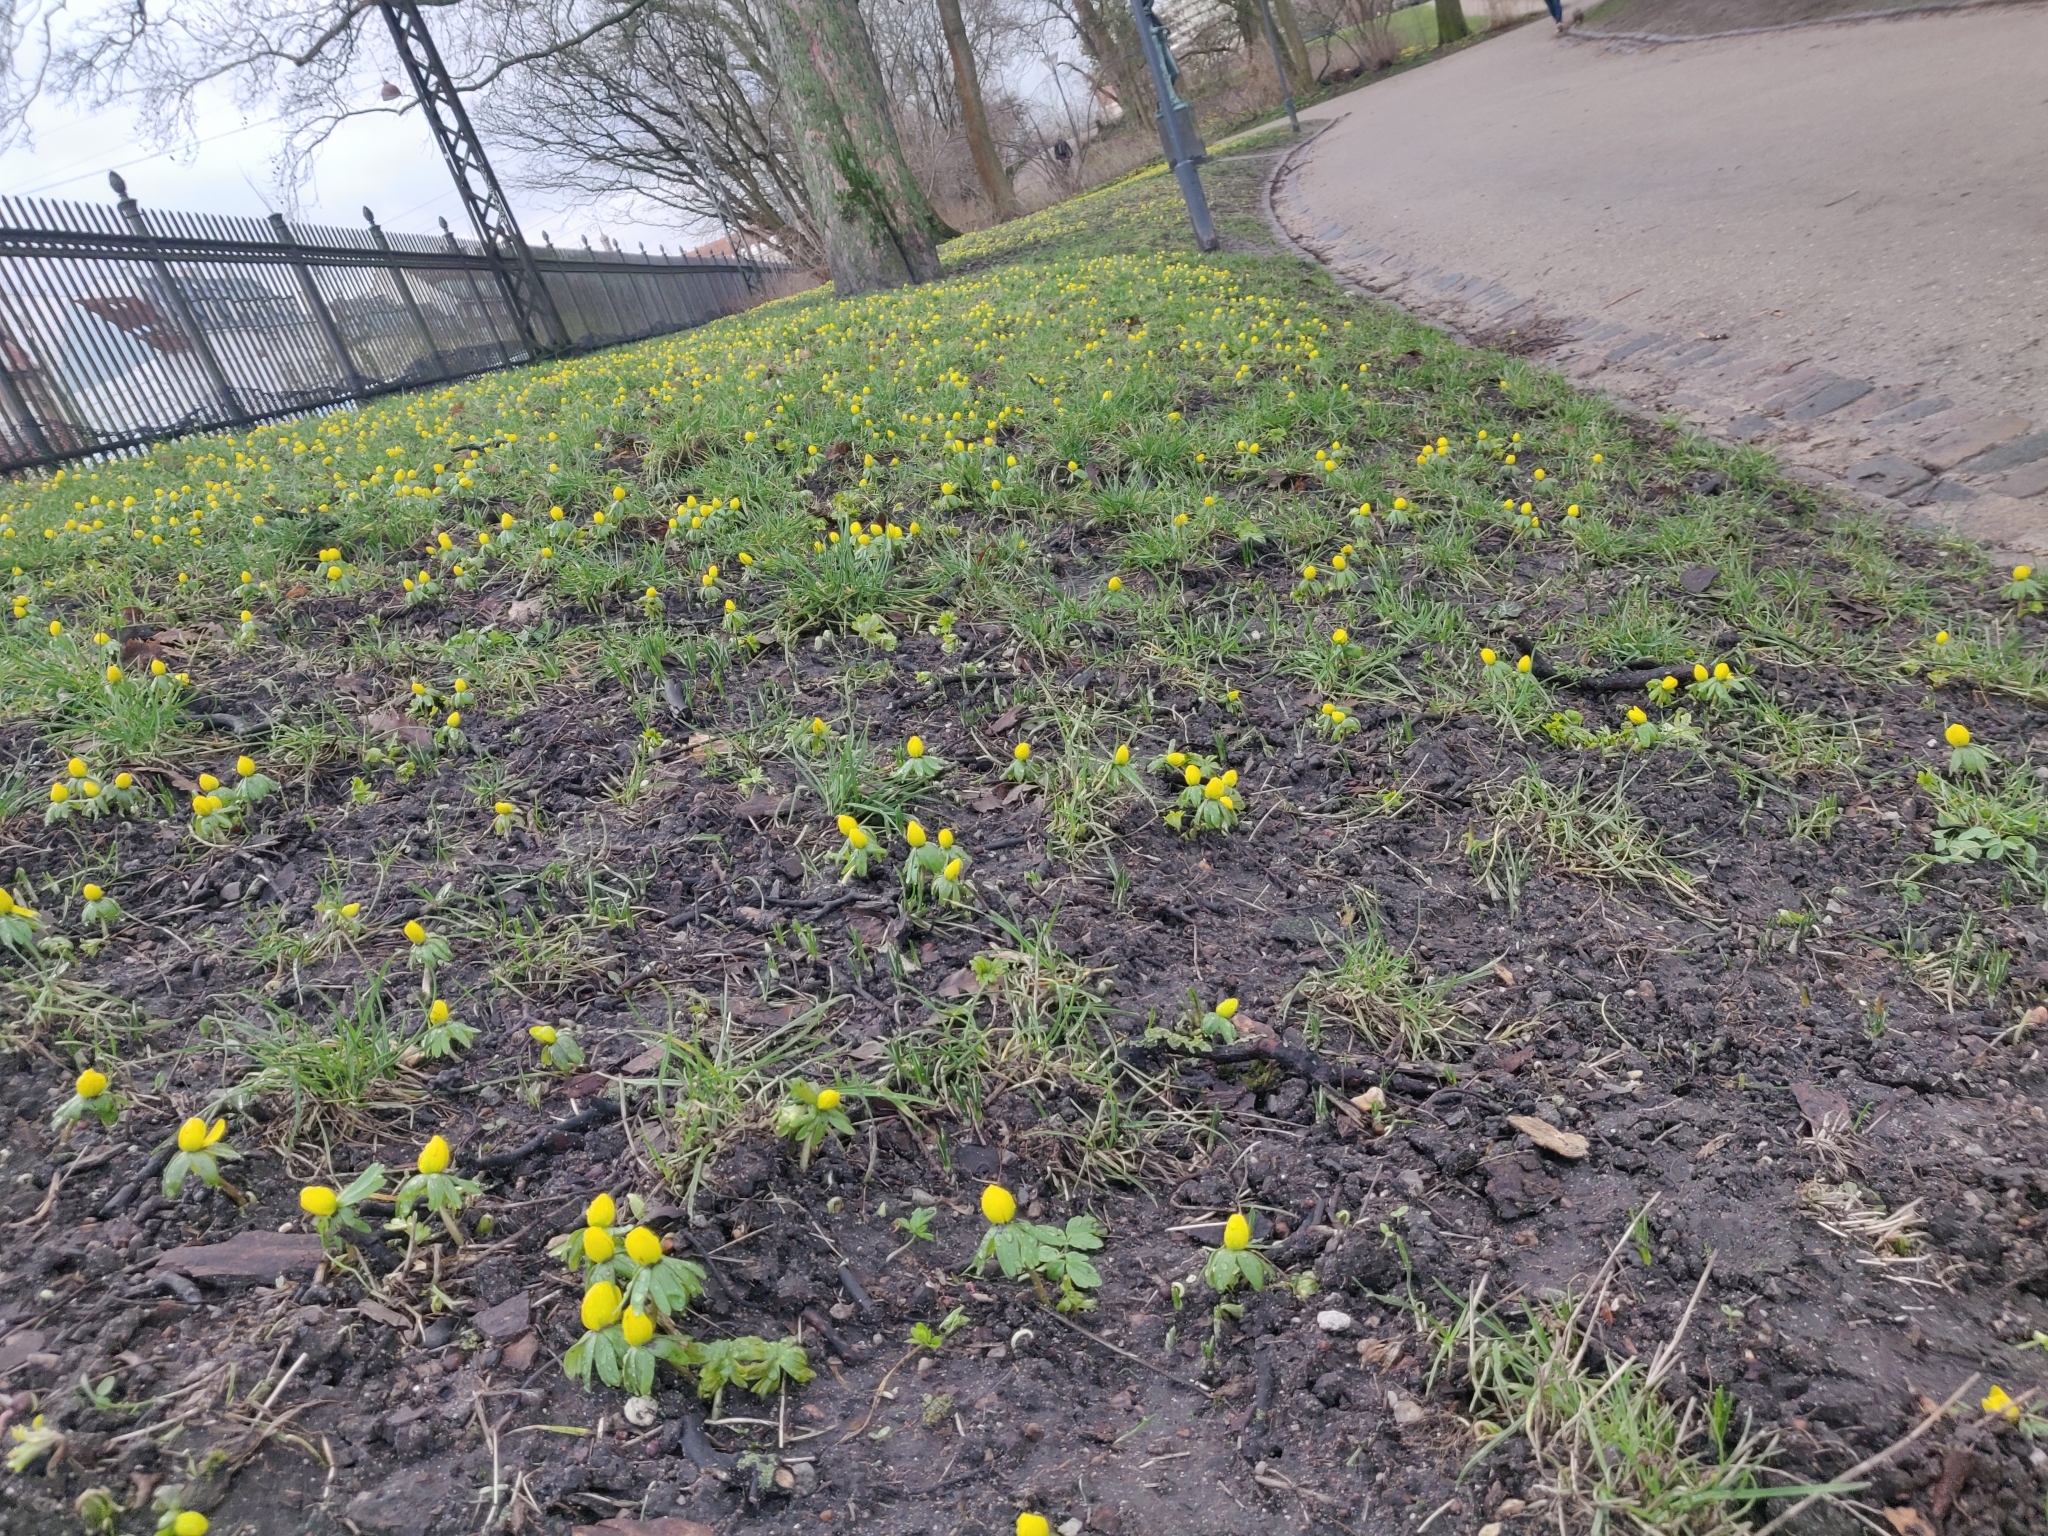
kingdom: Plantae
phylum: Tracheophyta
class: Magnoliopsida
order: Ranunculales
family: Ranunculaceae
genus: Eranthis
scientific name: Eranthis hyemalis
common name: Winter aconite
